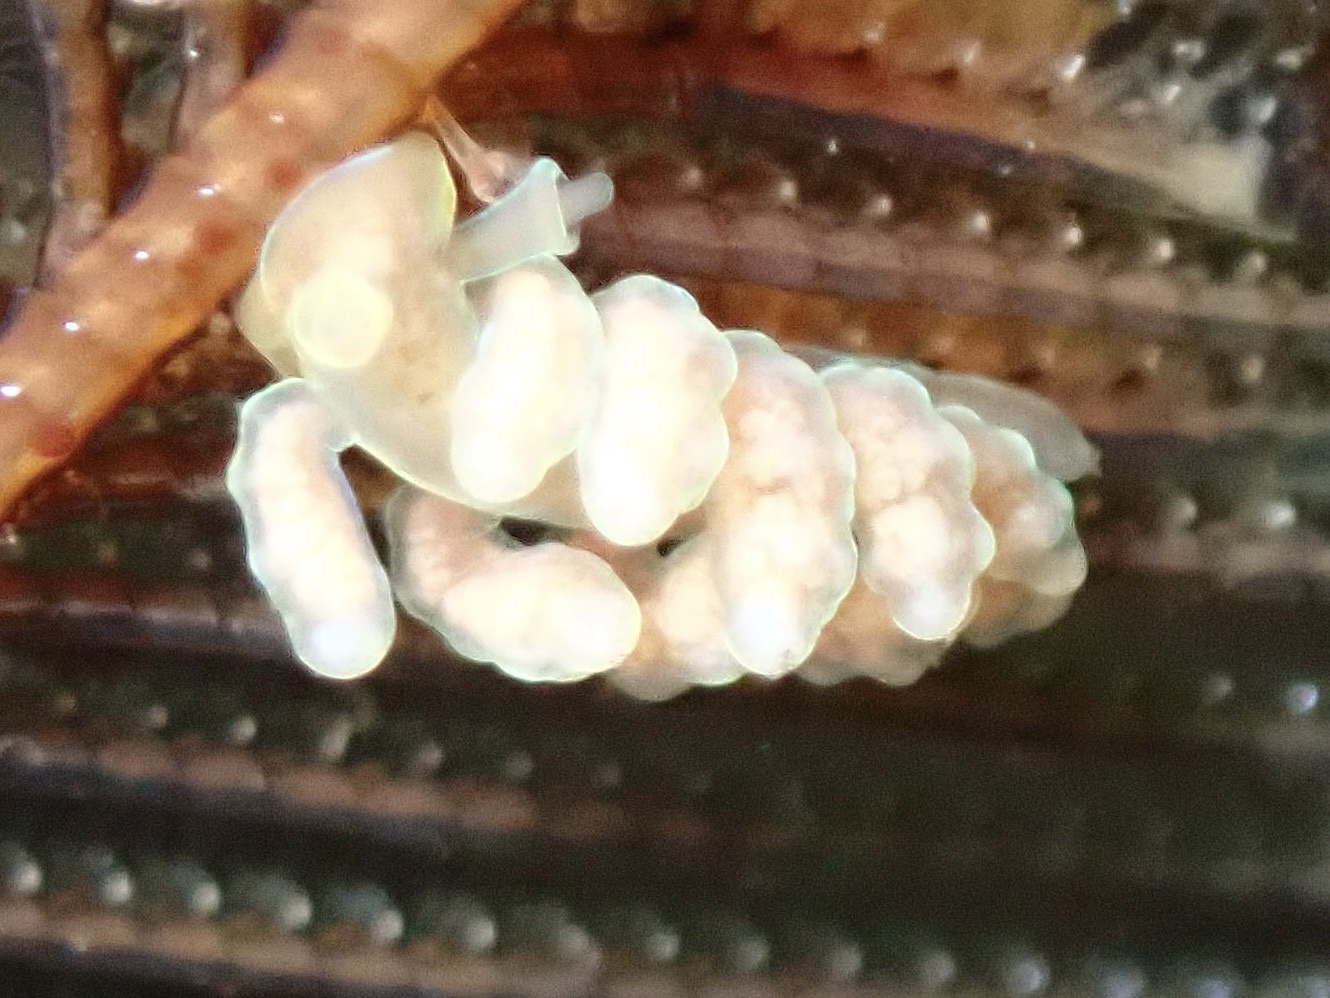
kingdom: Animalia
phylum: Mollusca
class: Gastropoda
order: Nudibranchia
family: Dotidae
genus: Doto
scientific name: Doto columbiana
